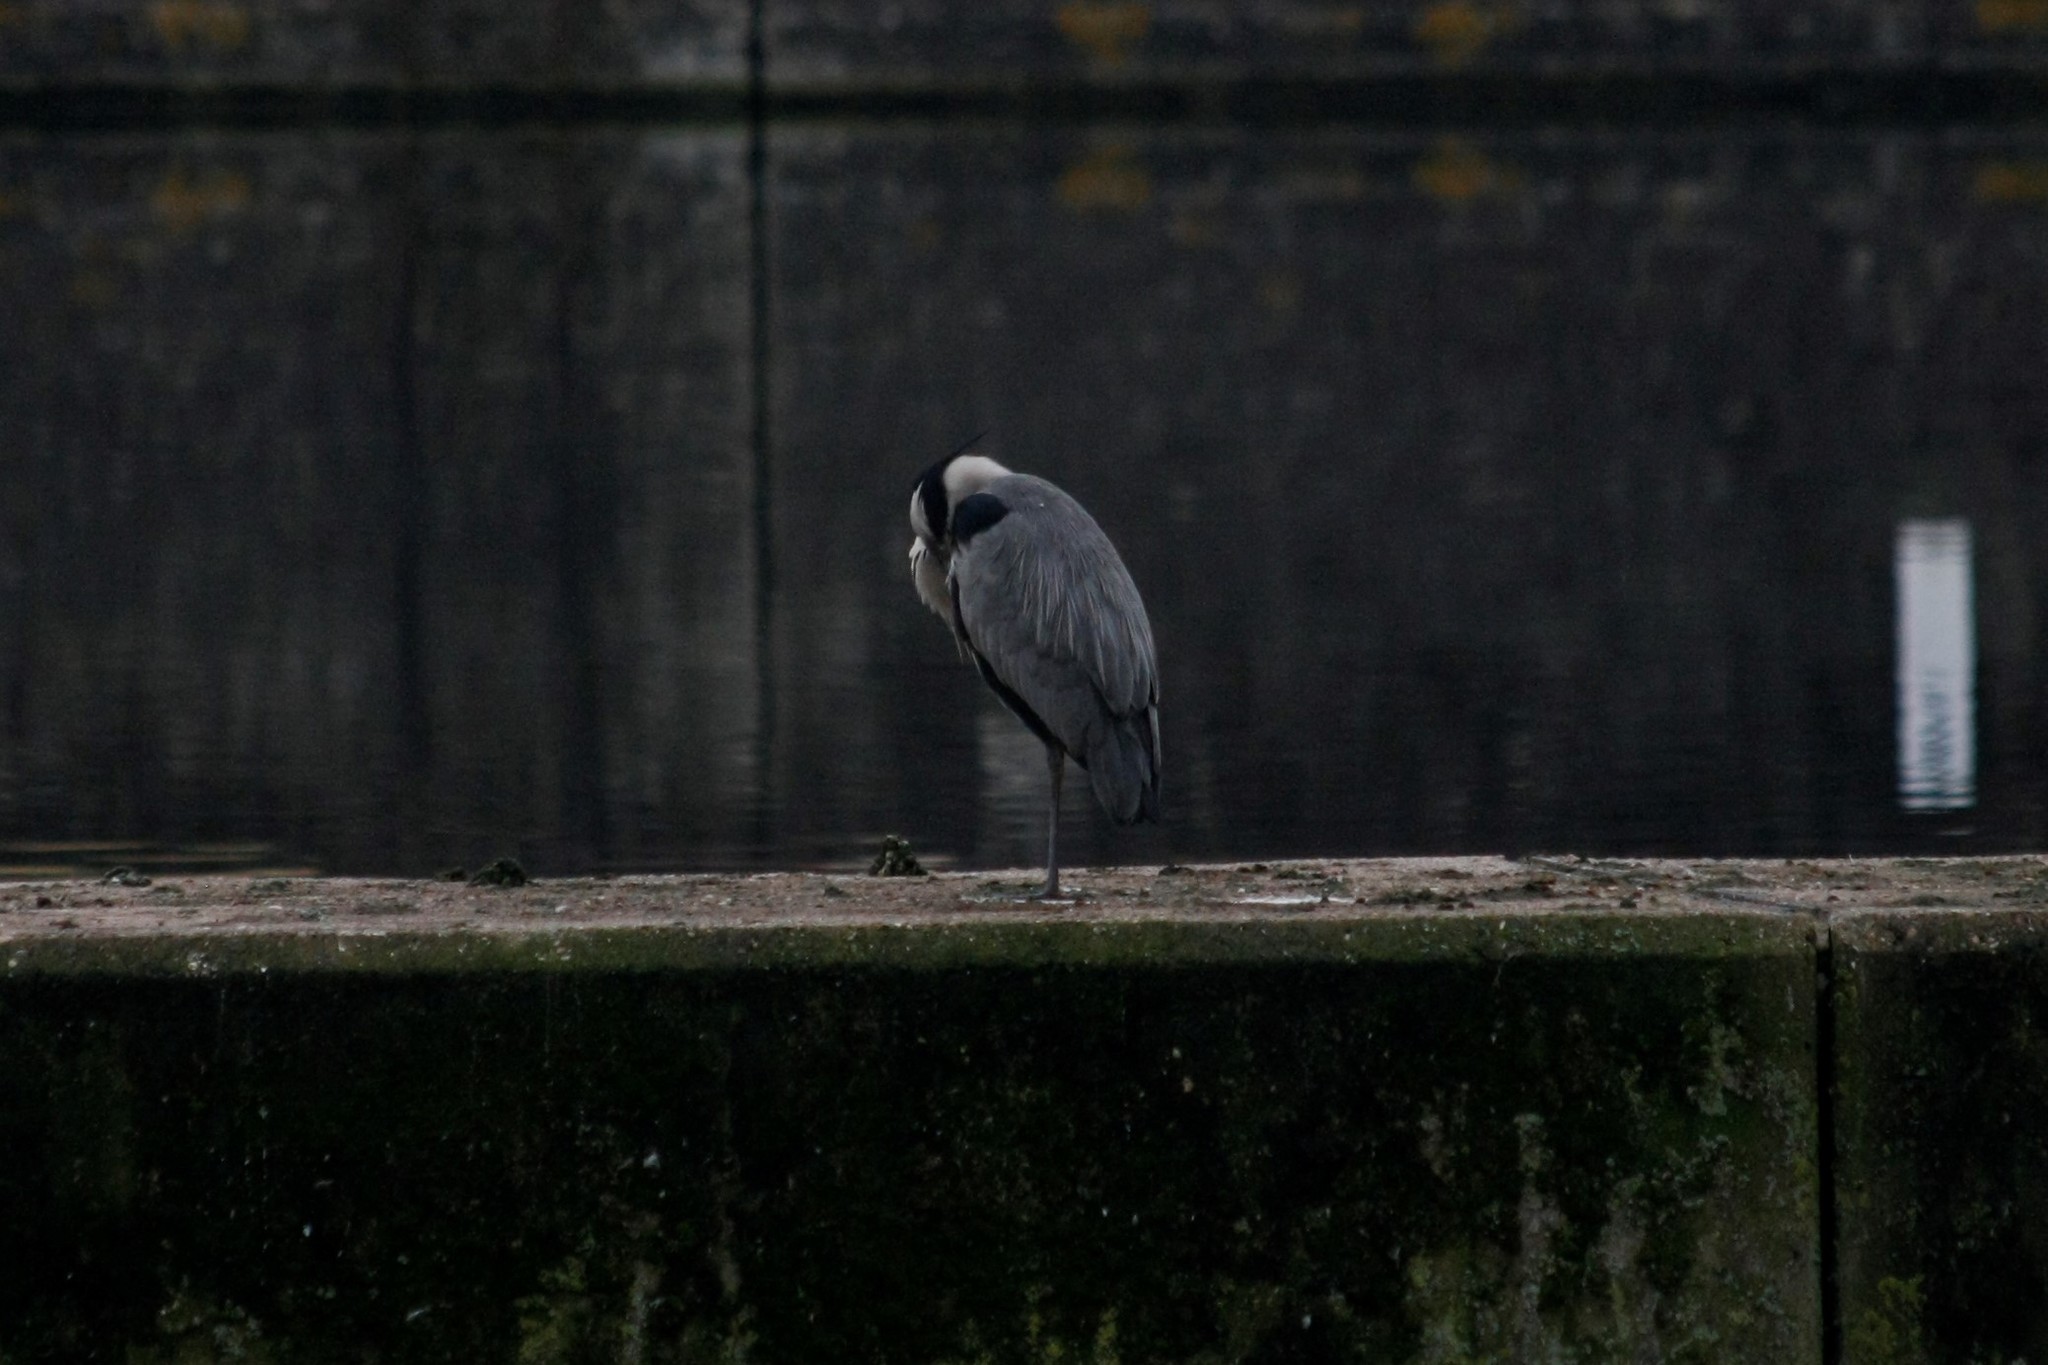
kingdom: Animalia
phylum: Chordata
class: Aves
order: Pelecaniformes
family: Ardeidae
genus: Ardea
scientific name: Ardea cinerea
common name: Grey heron
